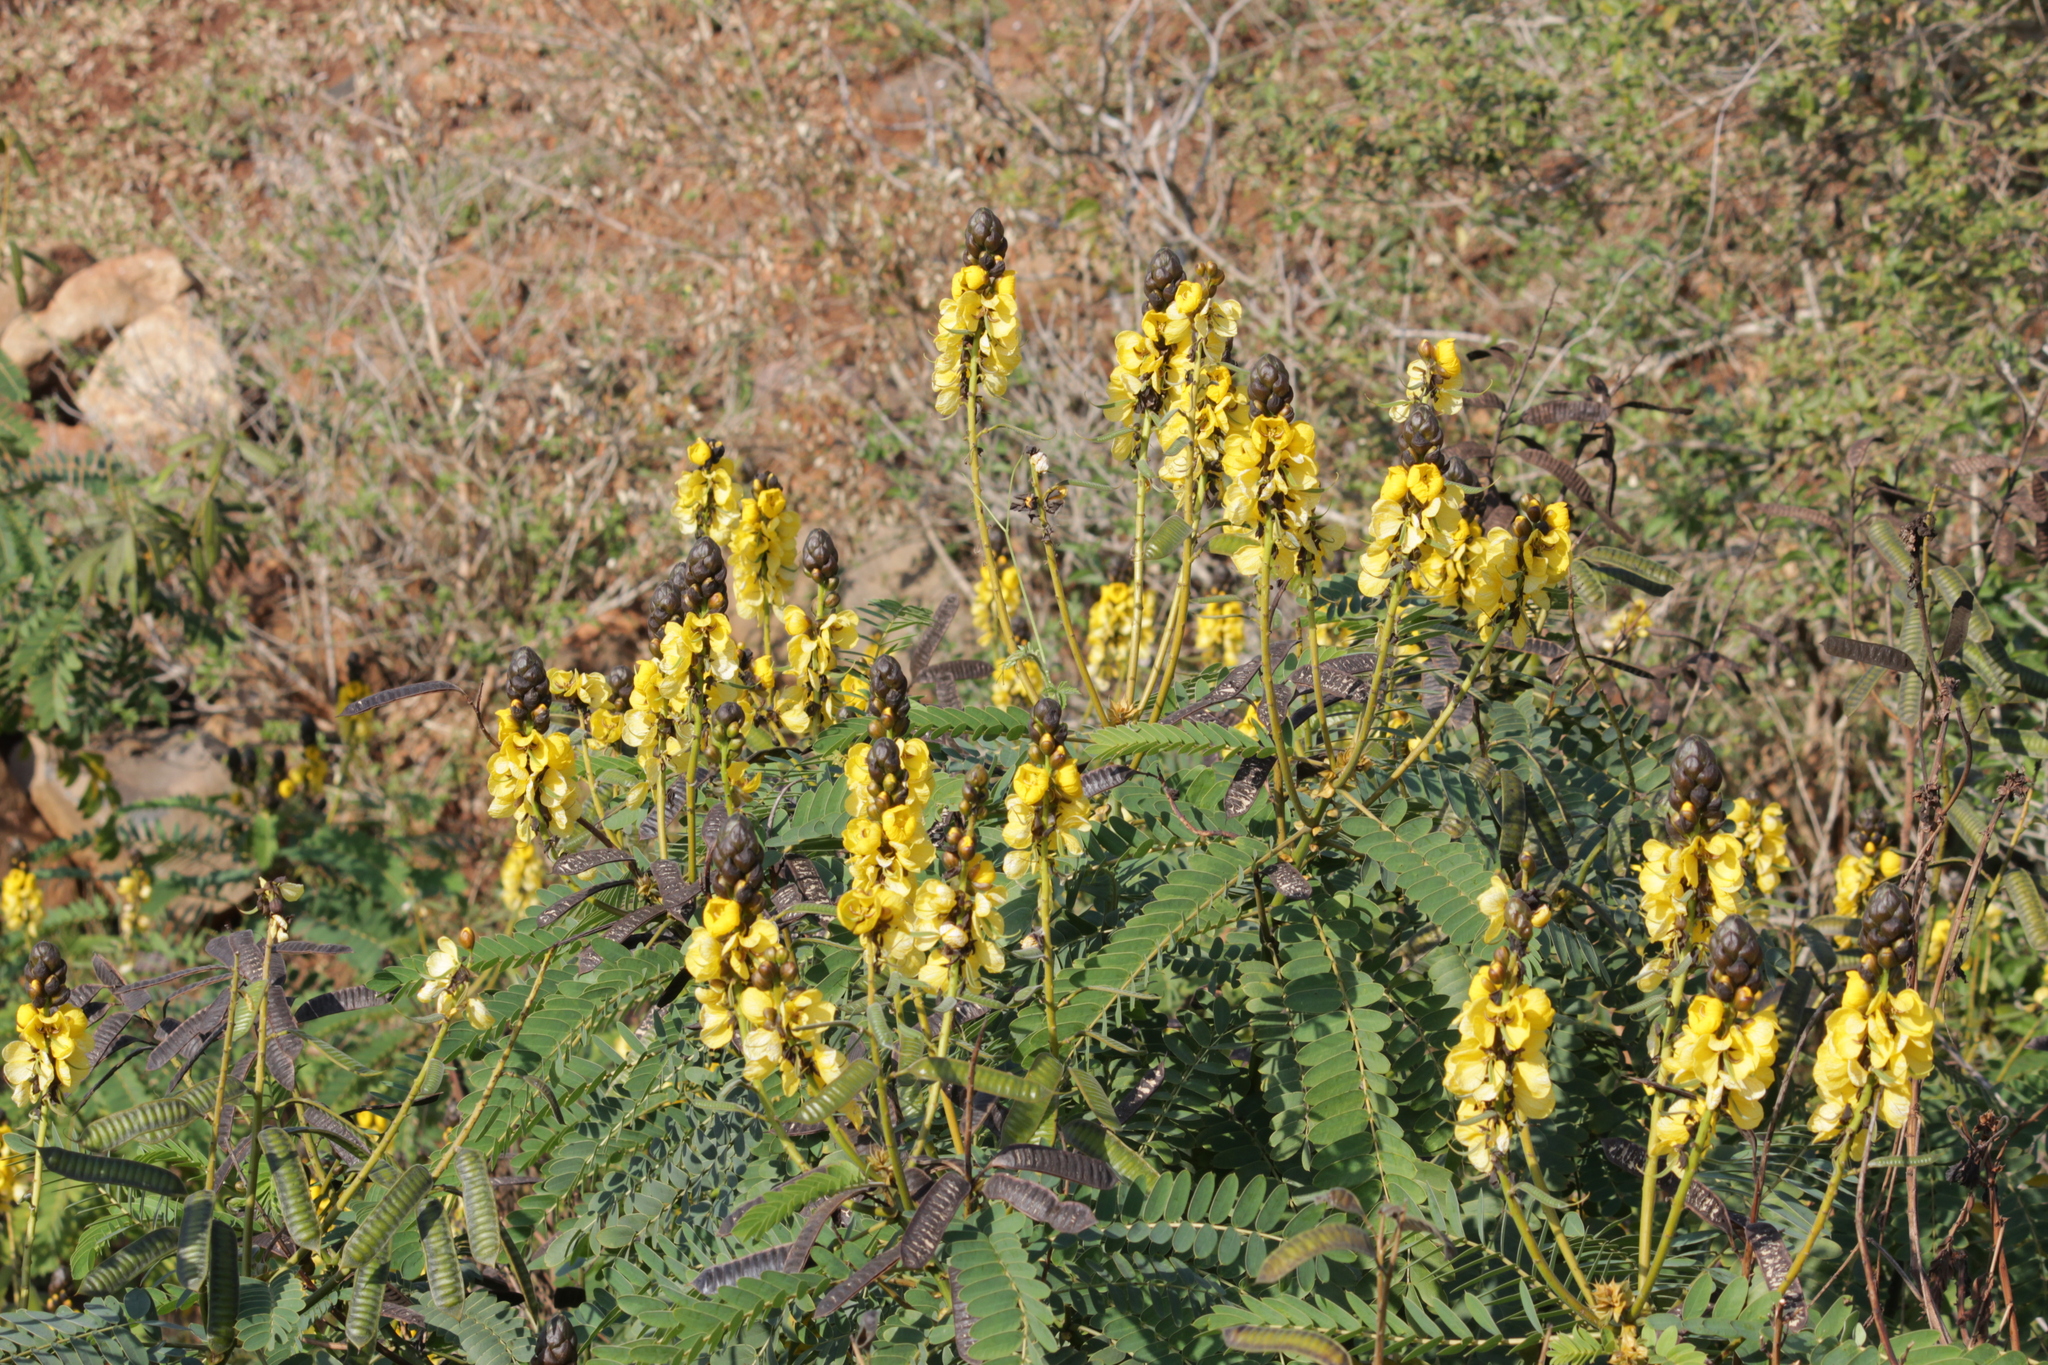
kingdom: Plantae
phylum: Tracheophyta
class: Magnoliopsida
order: Fabales
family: Fabaceae
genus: Senna
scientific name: Senna didymobotrya
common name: African senna
